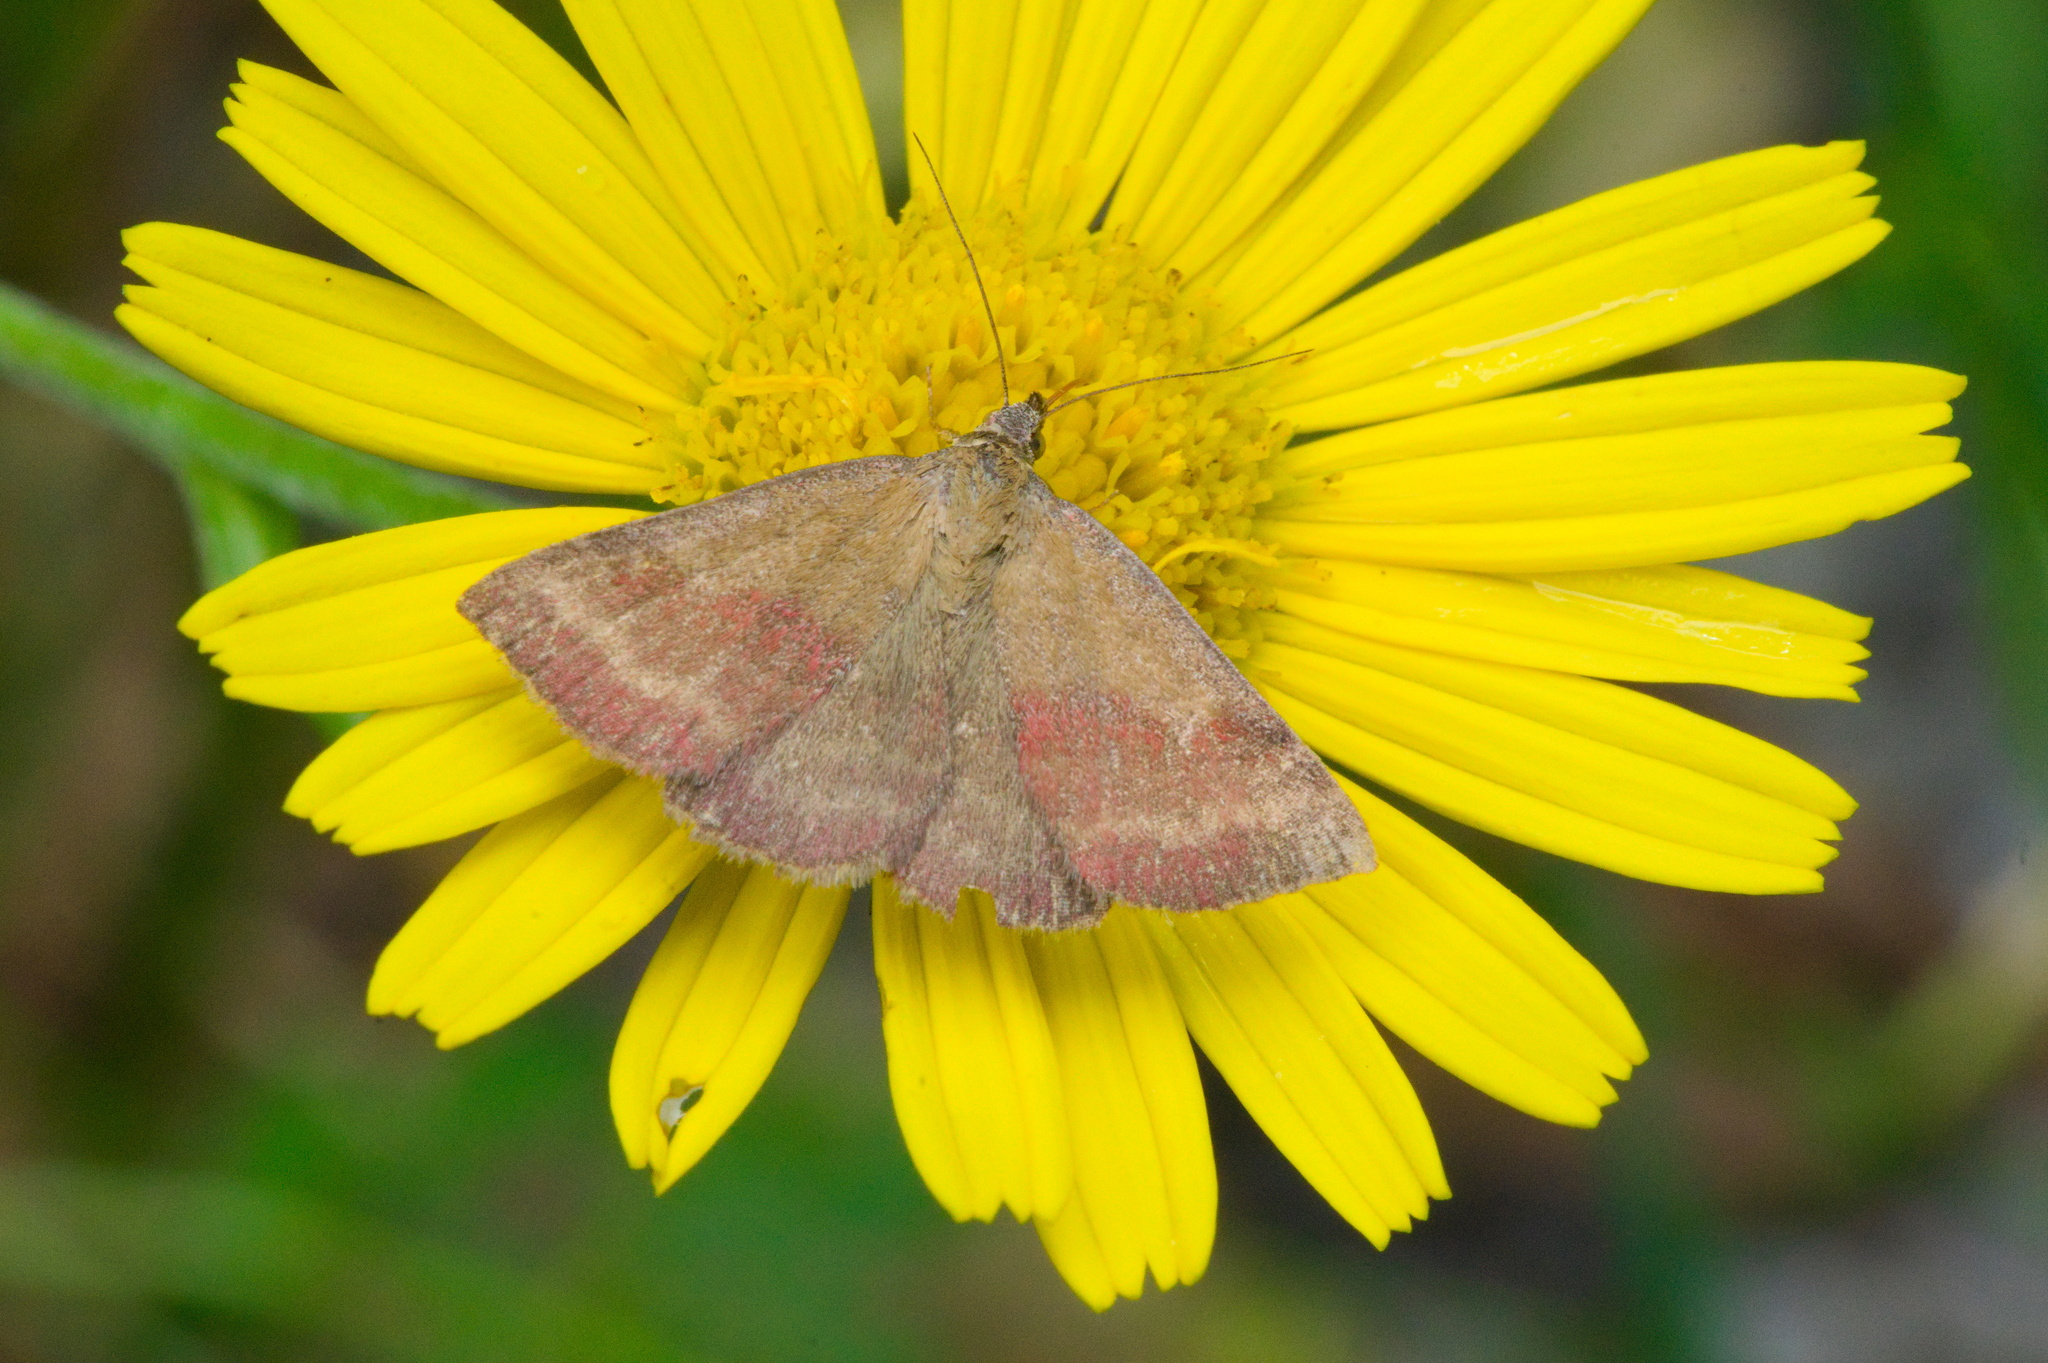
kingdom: Animalia
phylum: Arthropoda
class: Insecta
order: Lepidoptera
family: Erebidae
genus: Phytometra
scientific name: Phytometra viridaria
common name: Small purple-barred
